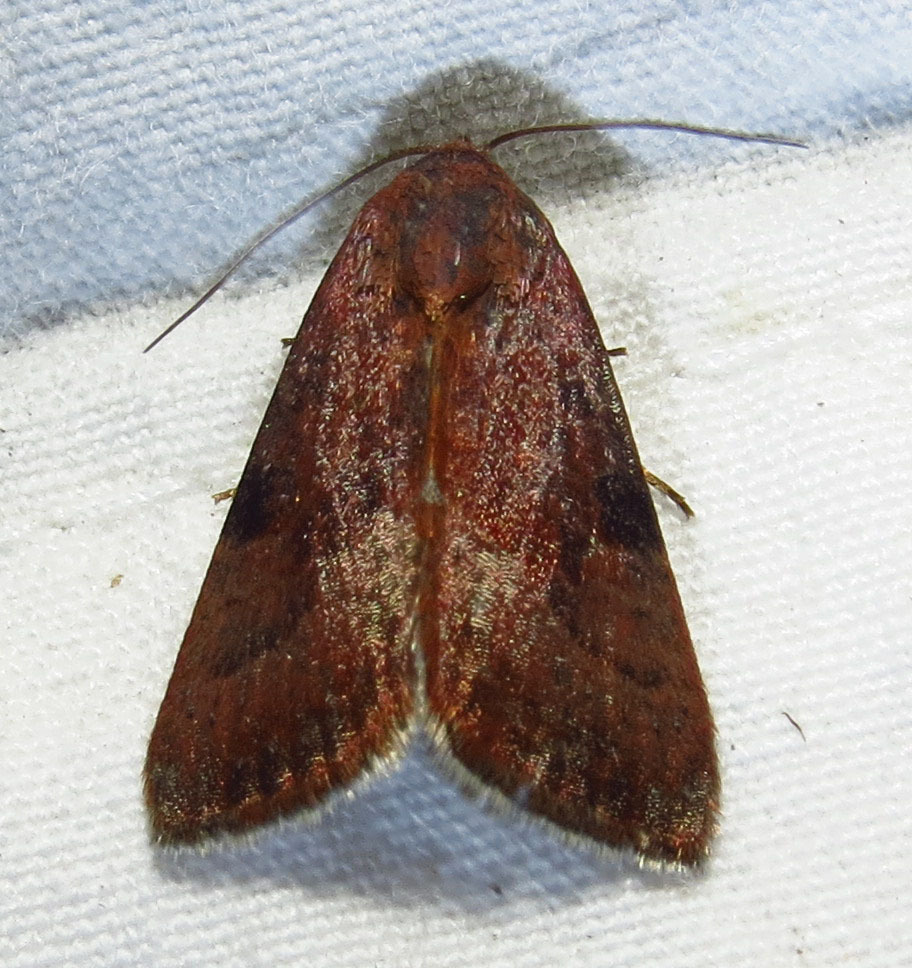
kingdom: Animalia
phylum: Arthropoda
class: Insecta
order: Lepidoptera
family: Noctuidae
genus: Galgula
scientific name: Galgula partita
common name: Wedgeling
